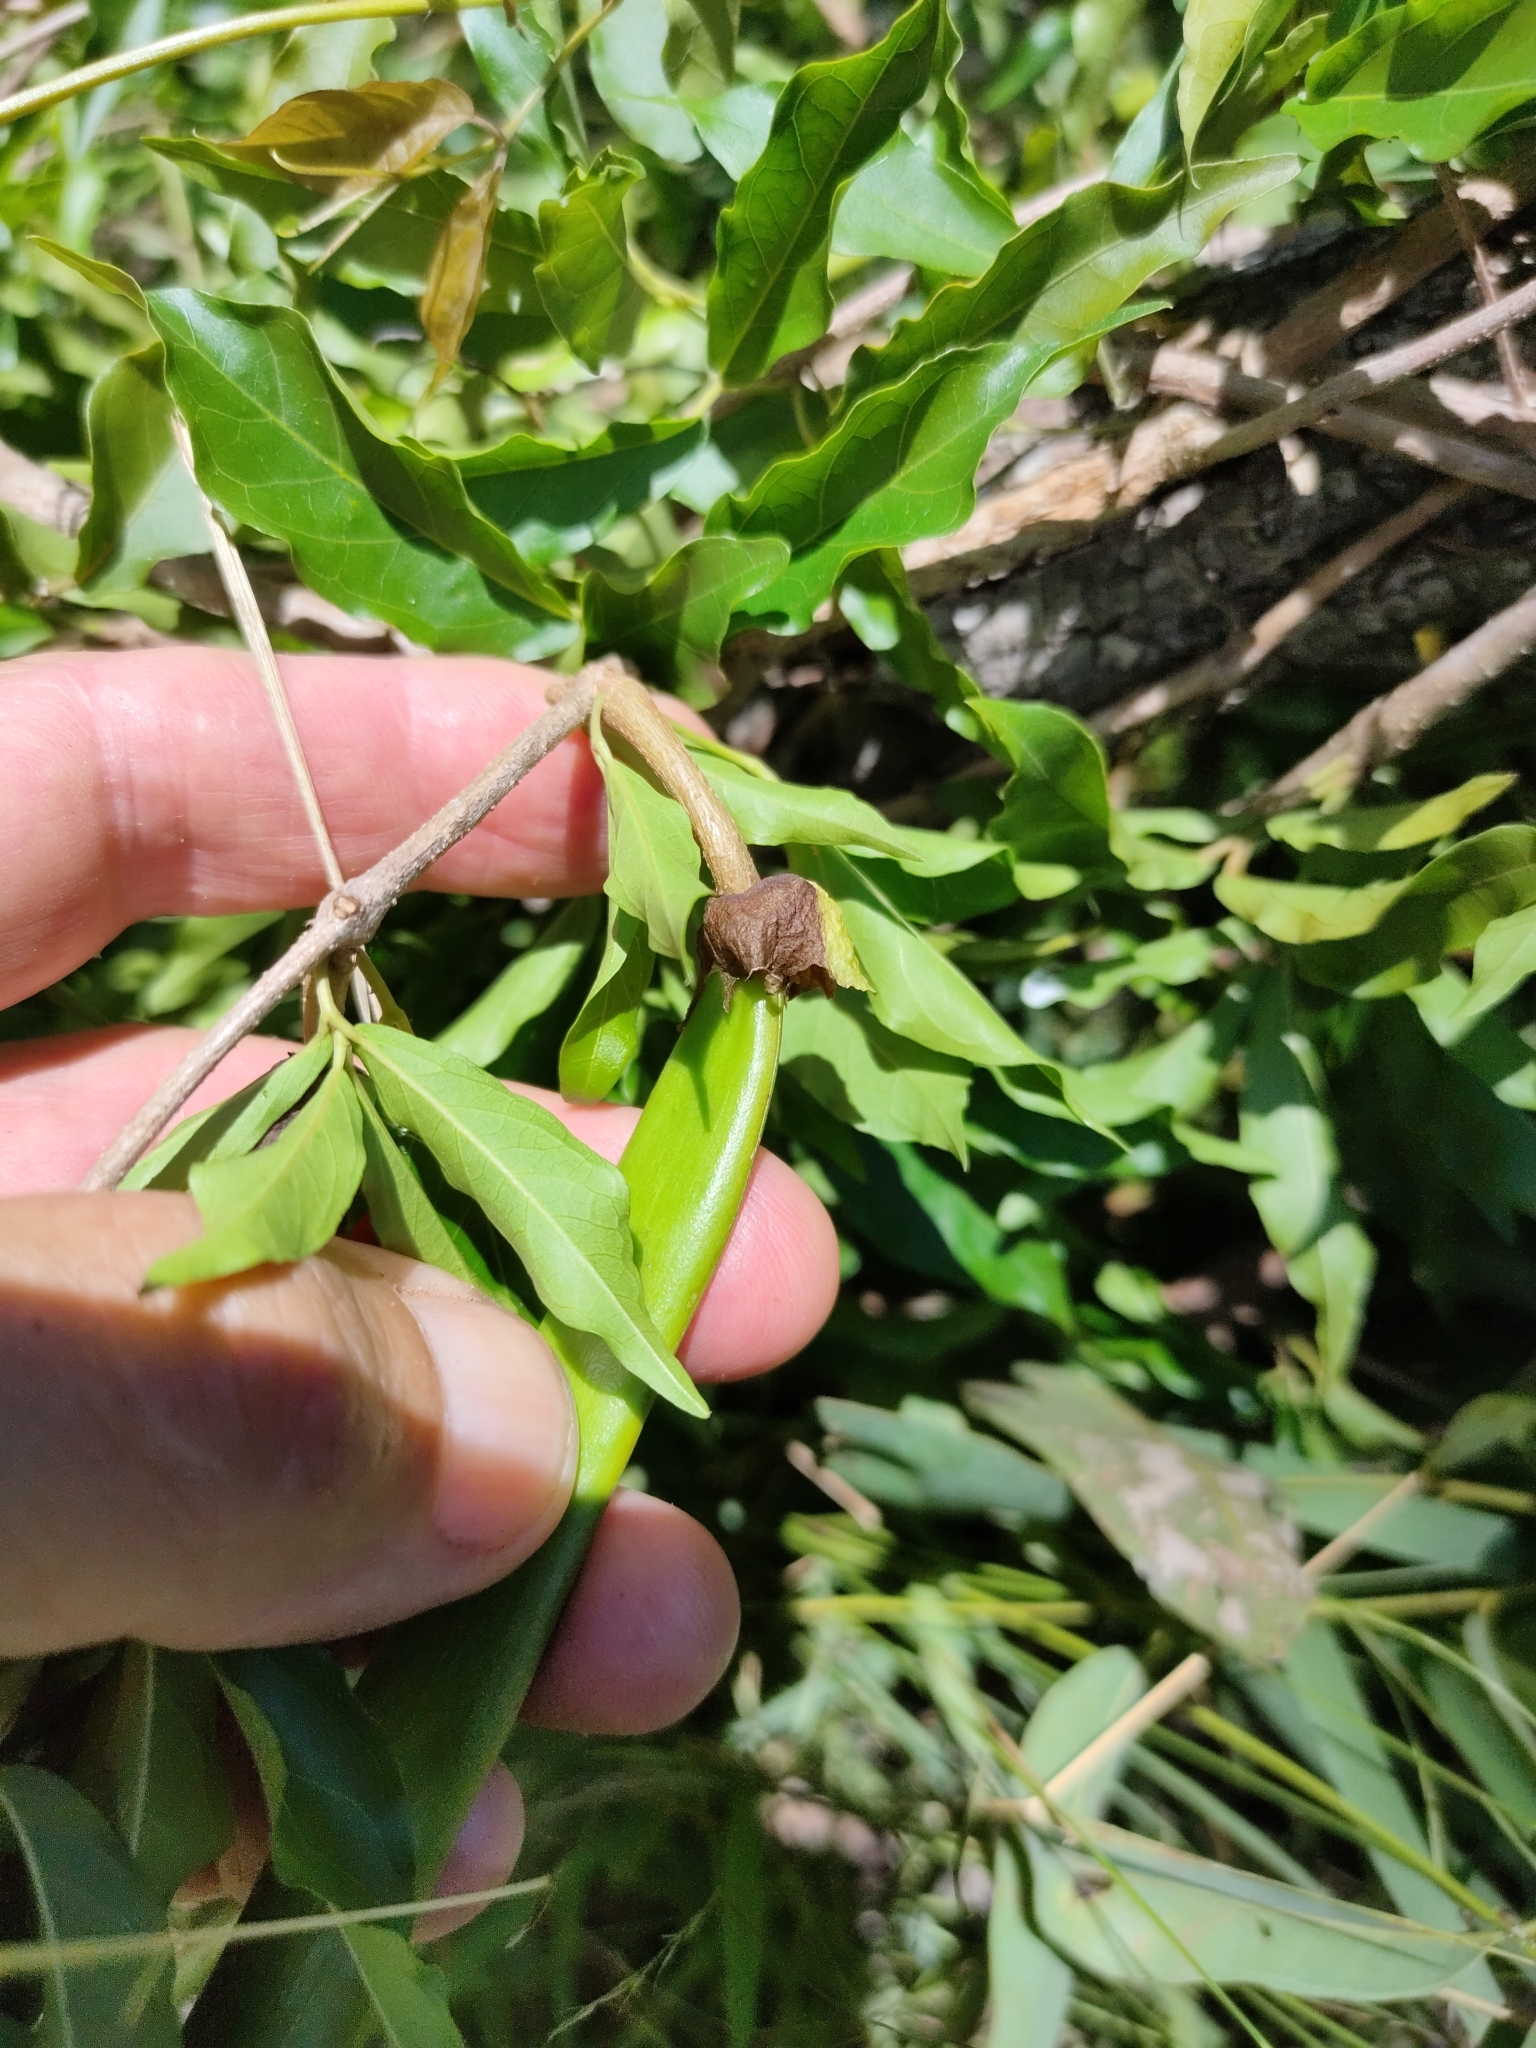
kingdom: Plantae
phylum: Tracheophyta
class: Magnoliopsida
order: Lamiales
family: Bignoniaceae
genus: Dolichandra
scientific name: Dolichandra unguis-cati
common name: Catclaw vine
